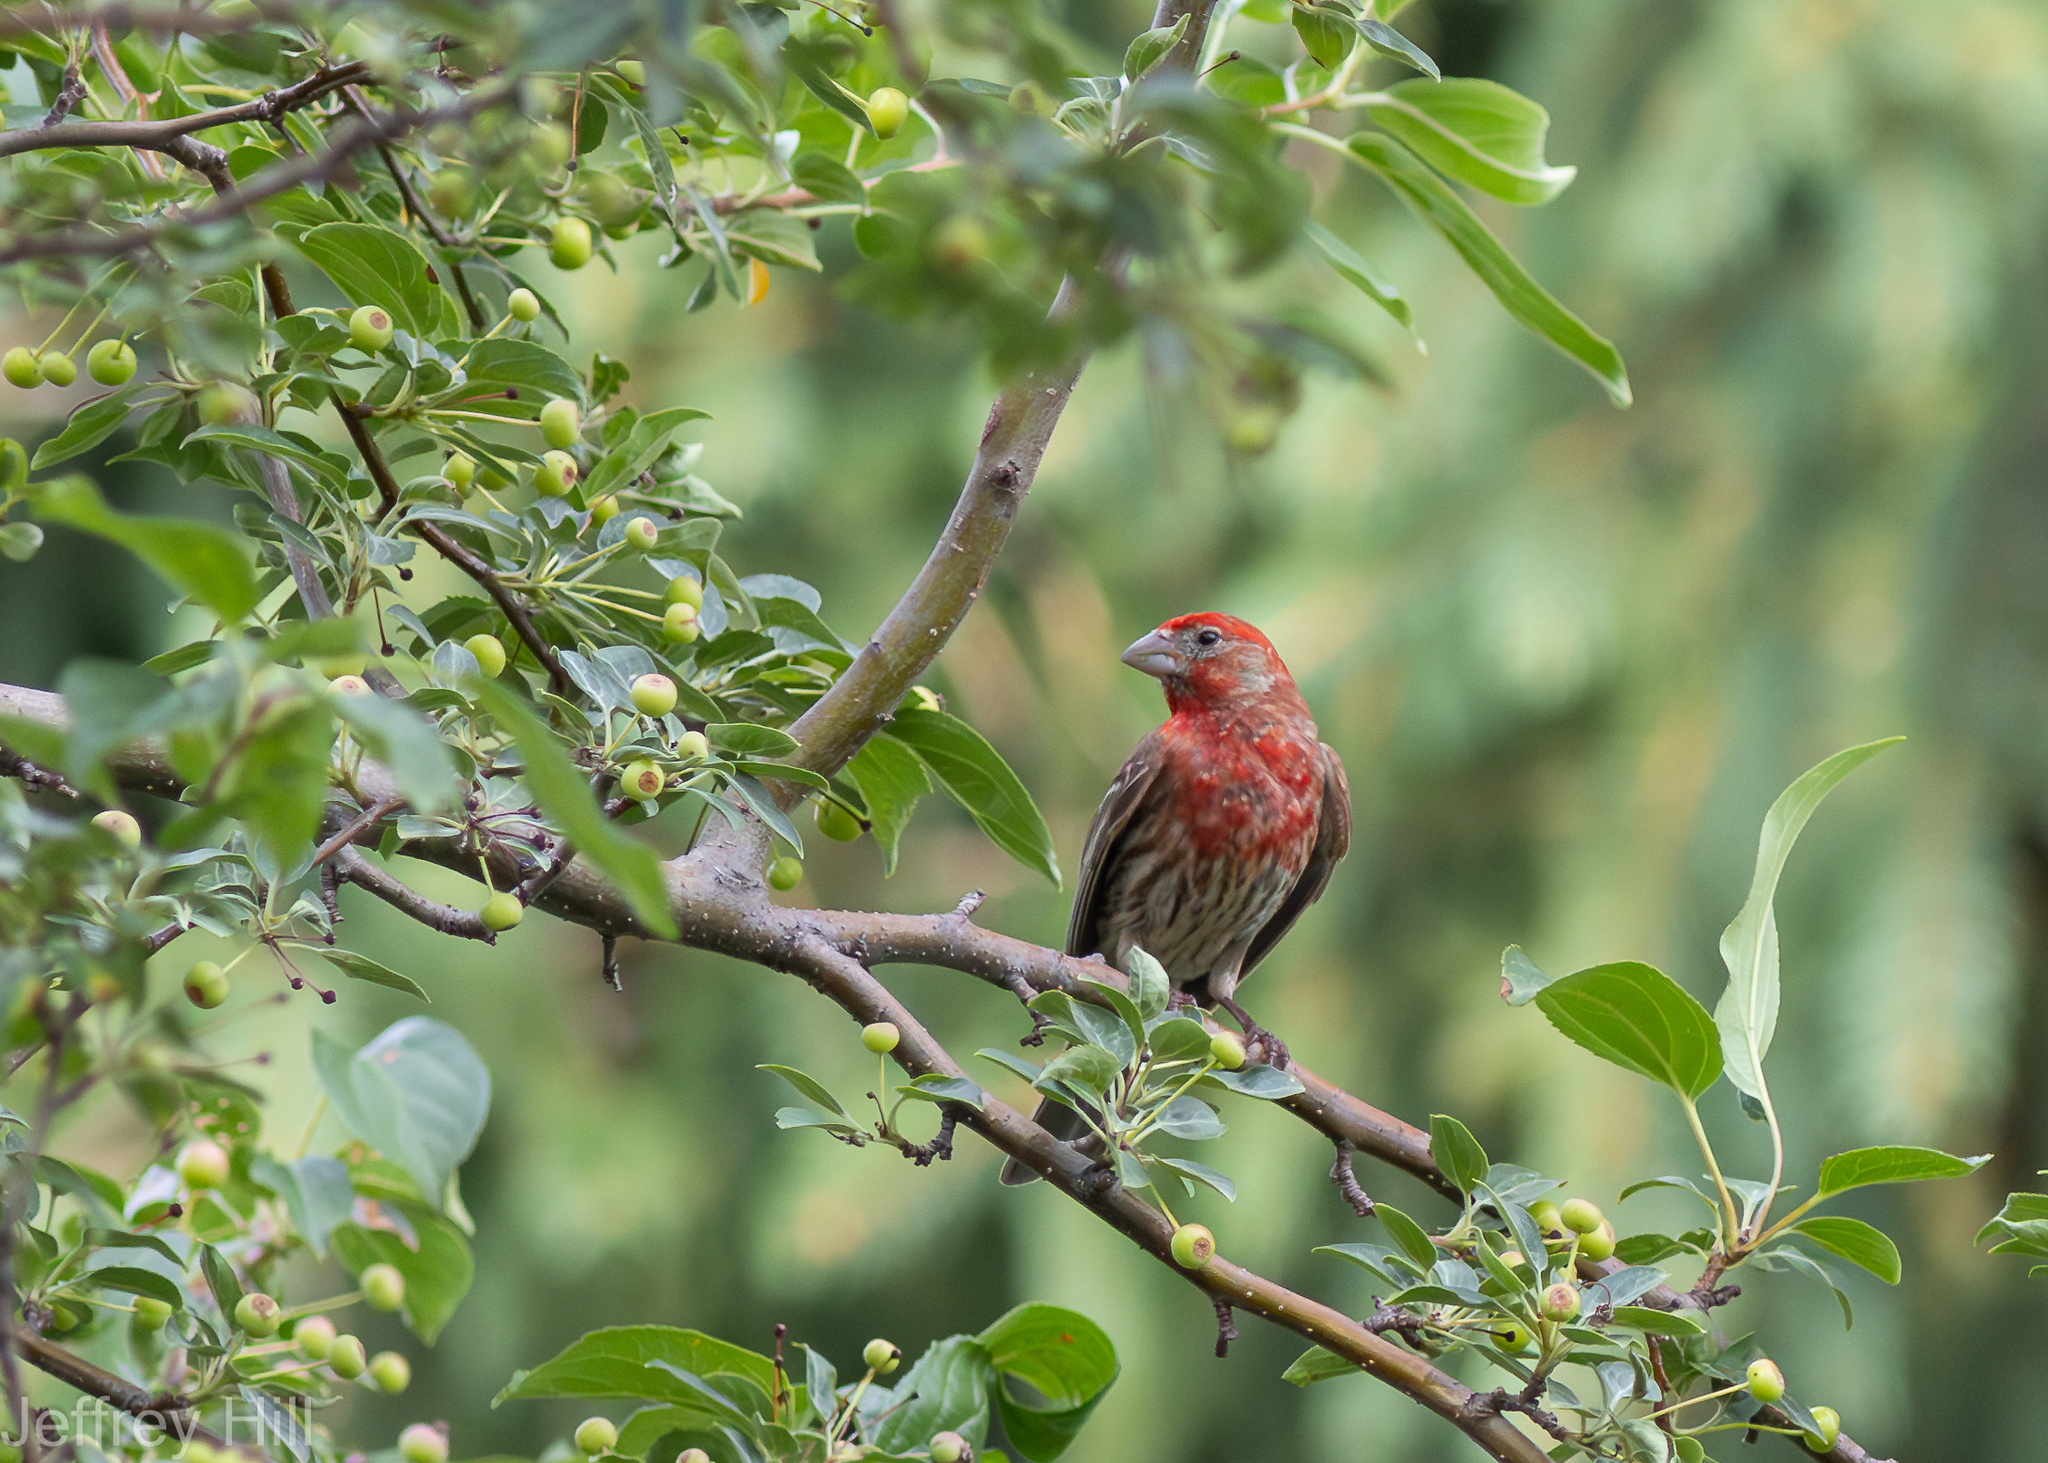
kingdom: Animalia
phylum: Chordata
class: Aves
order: Passeriformes
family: Fringillidae
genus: Haemorhous
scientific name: Haemorhous mexicanus
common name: House finch
